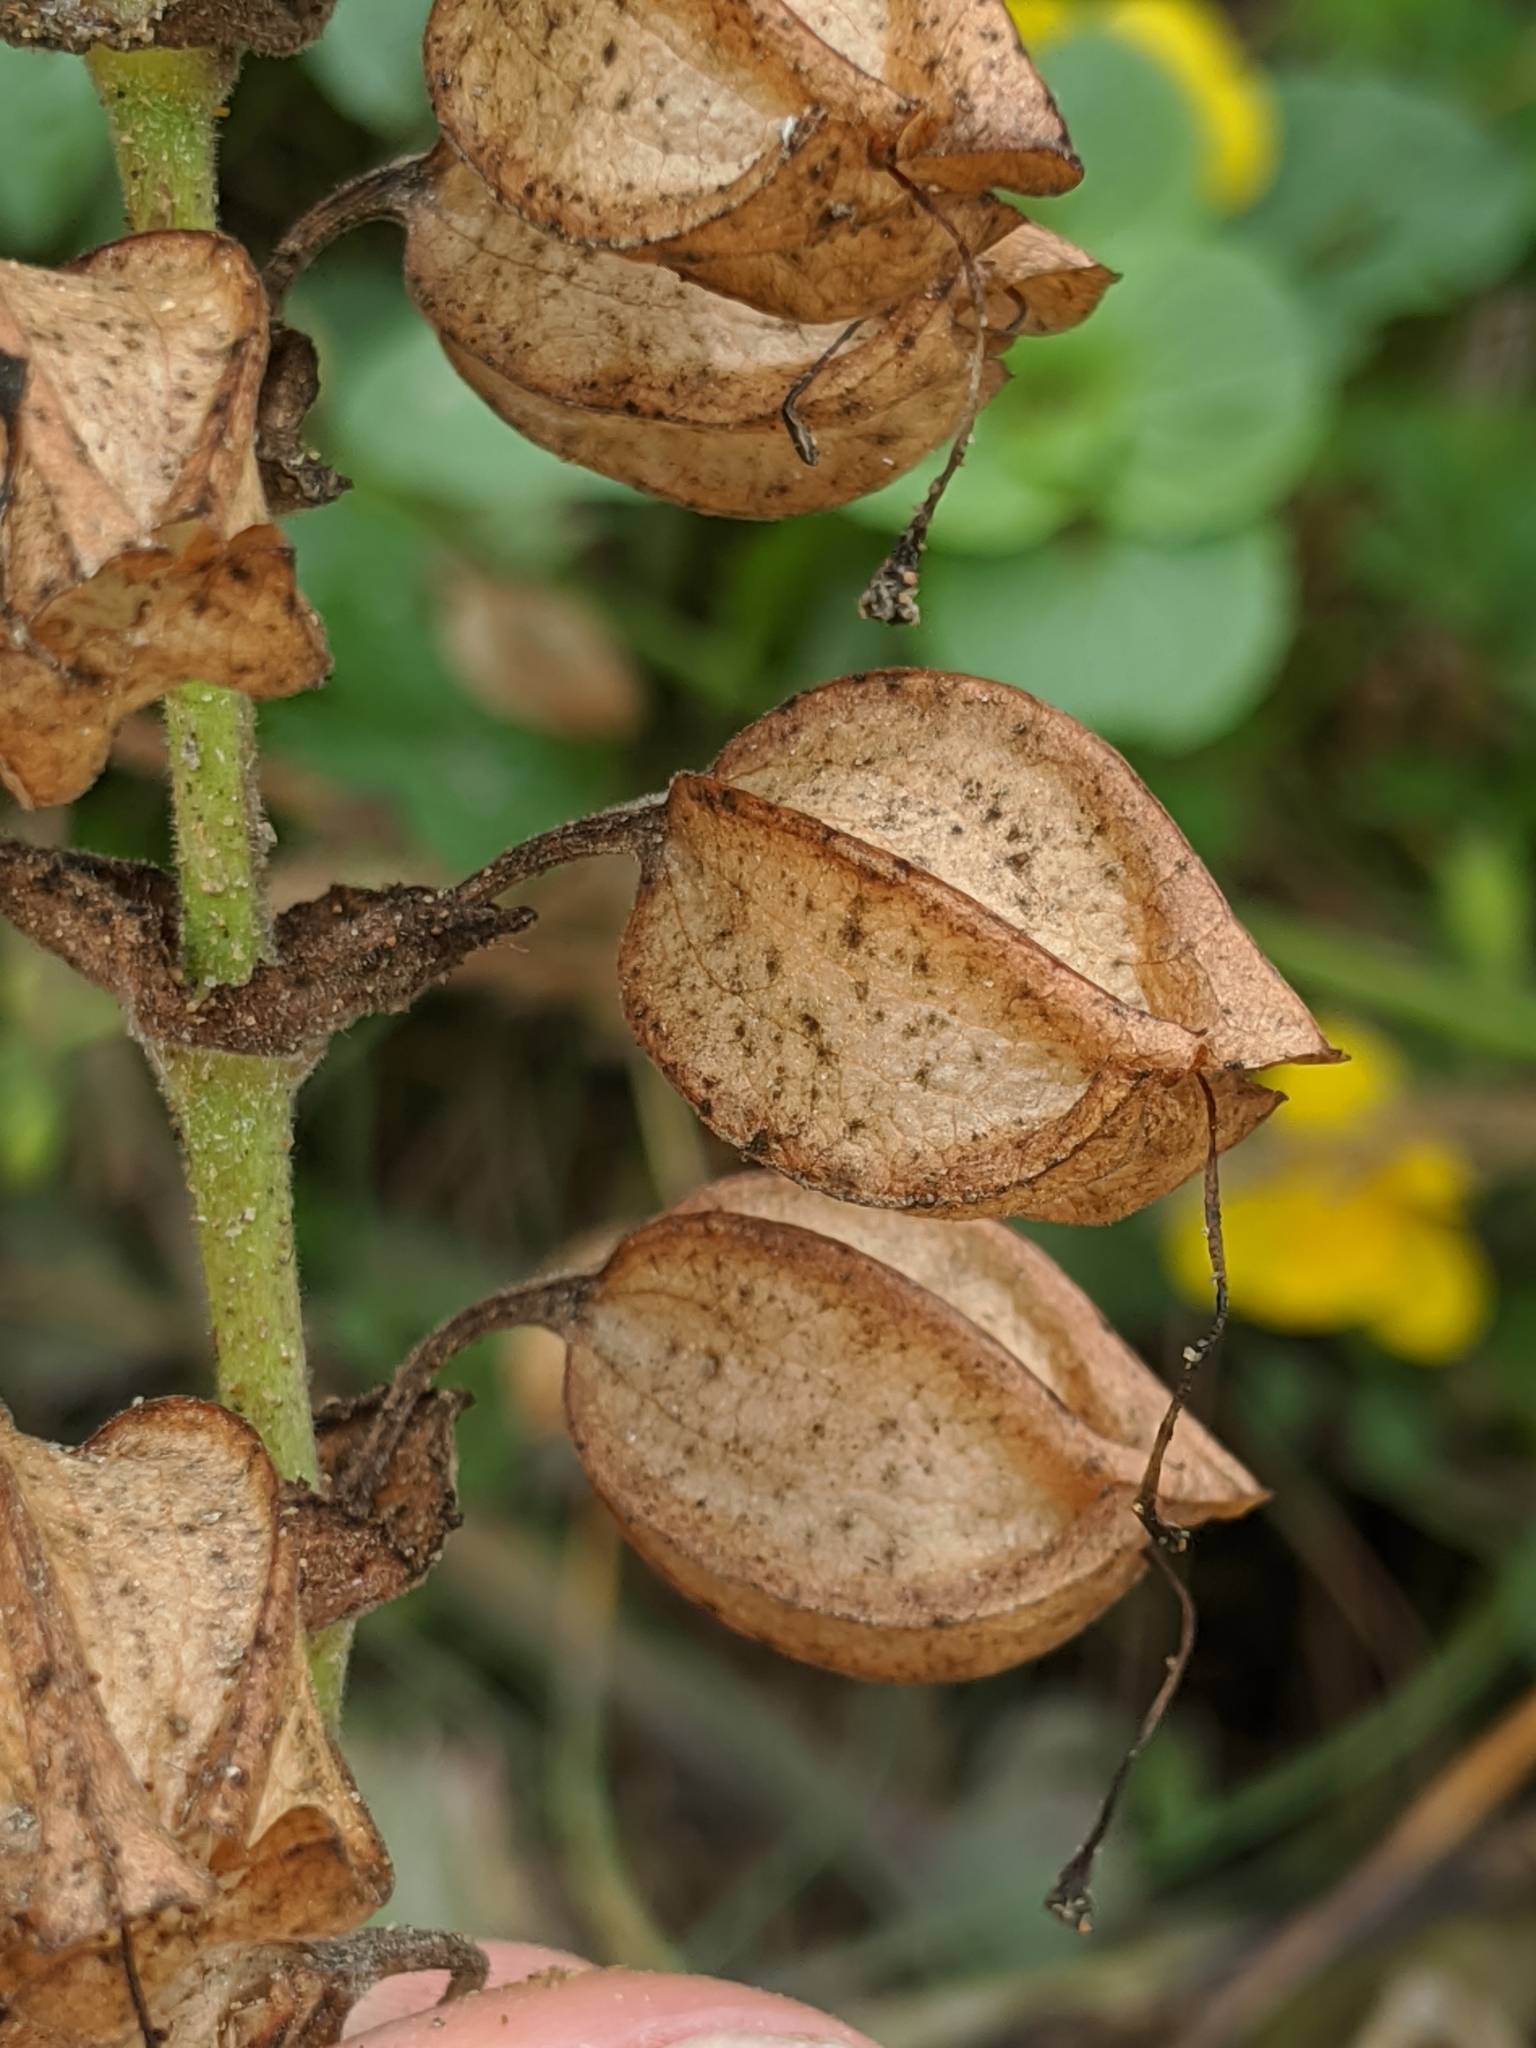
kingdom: Plantae
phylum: Tracheophyta
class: Magnoliopsida
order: Lamiales
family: Phrymaceae
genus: Erythranthe
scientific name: Erythranthe grandis
